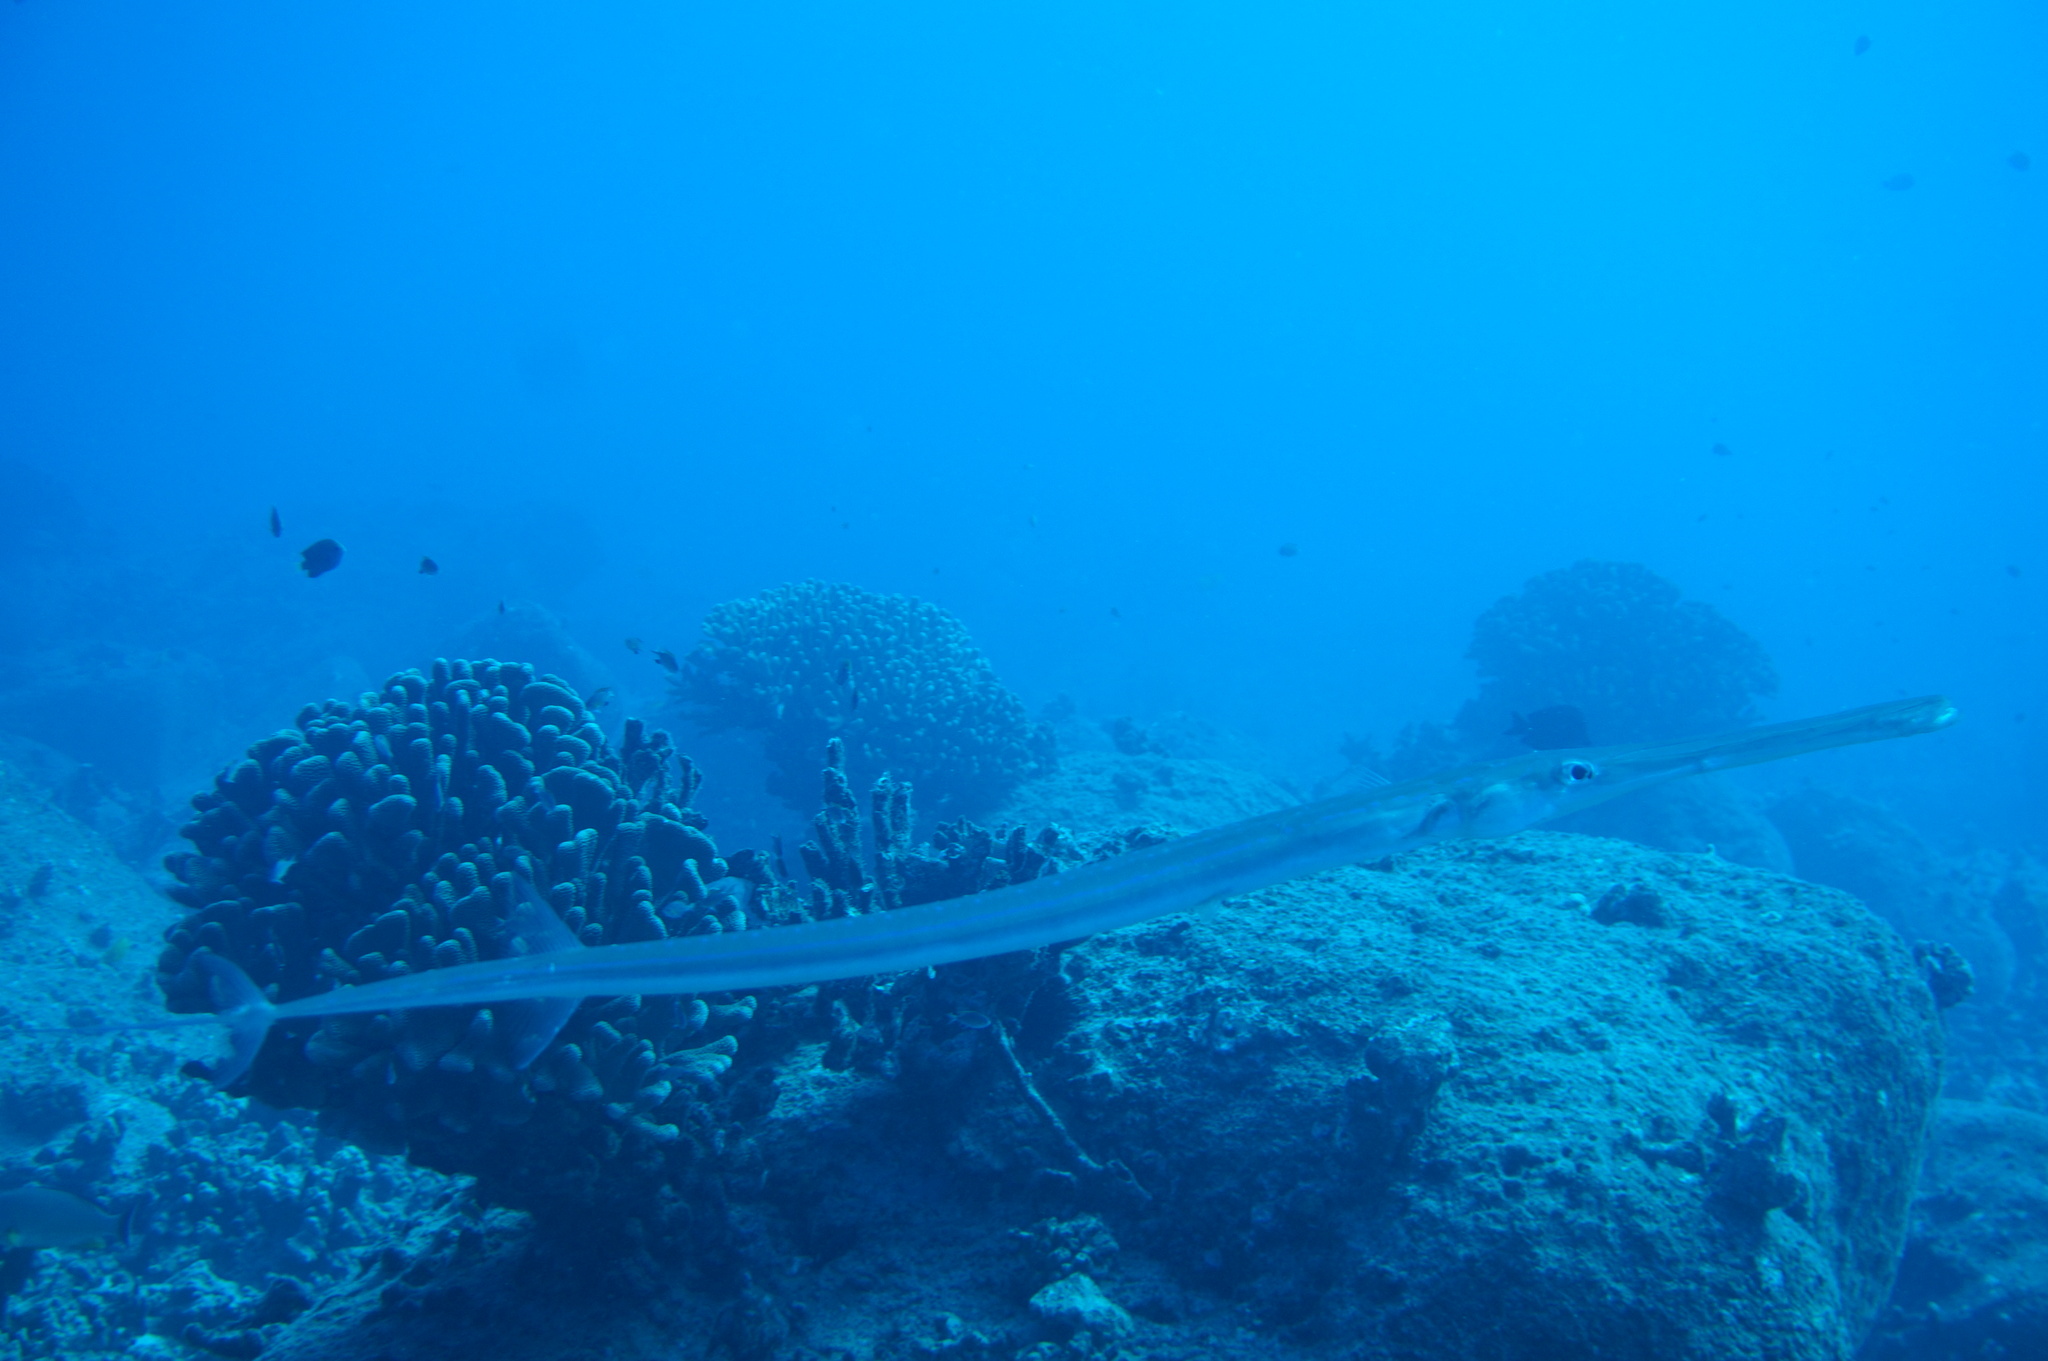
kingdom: Animalia
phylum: Chordata
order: Syngnathiformes
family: Fistulariidae
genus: Fistularia
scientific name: Fistularia commersonii
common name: Bluespotted cornetfish
